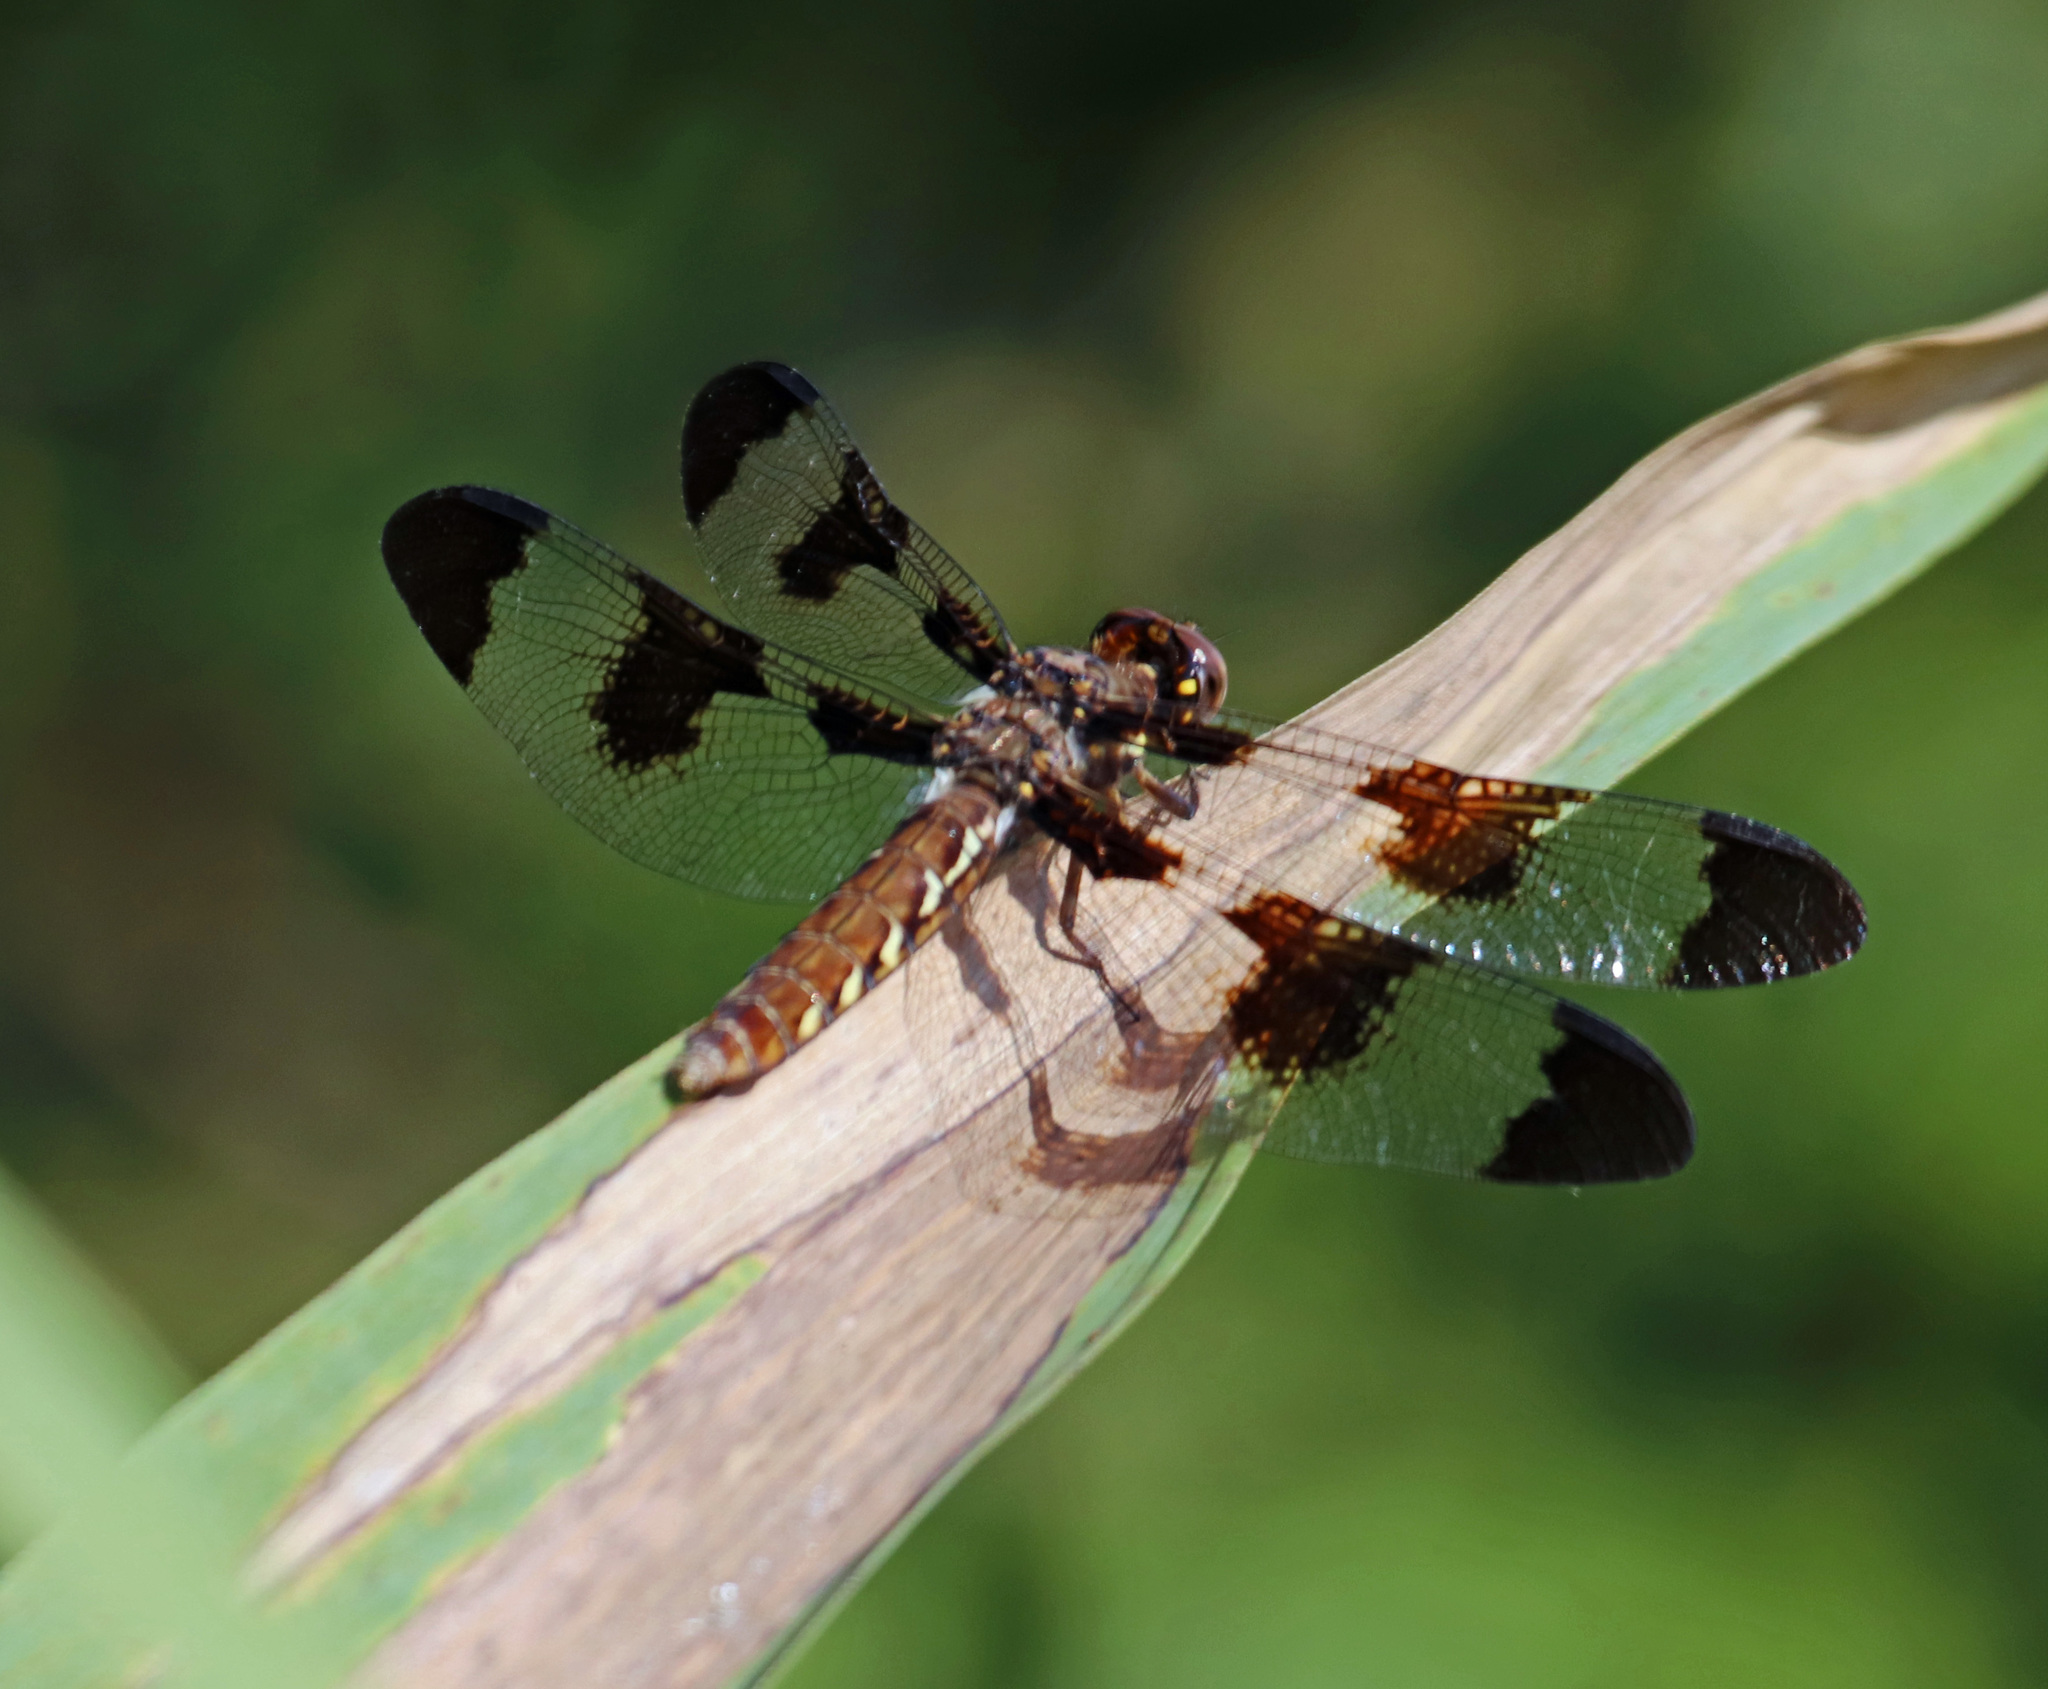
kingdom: Animalia
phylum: Arthropoda
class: Insecta
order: Odonata
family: Libellulidae
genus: Plathemis
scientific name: Plathemis lydia
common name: Common whitetail
